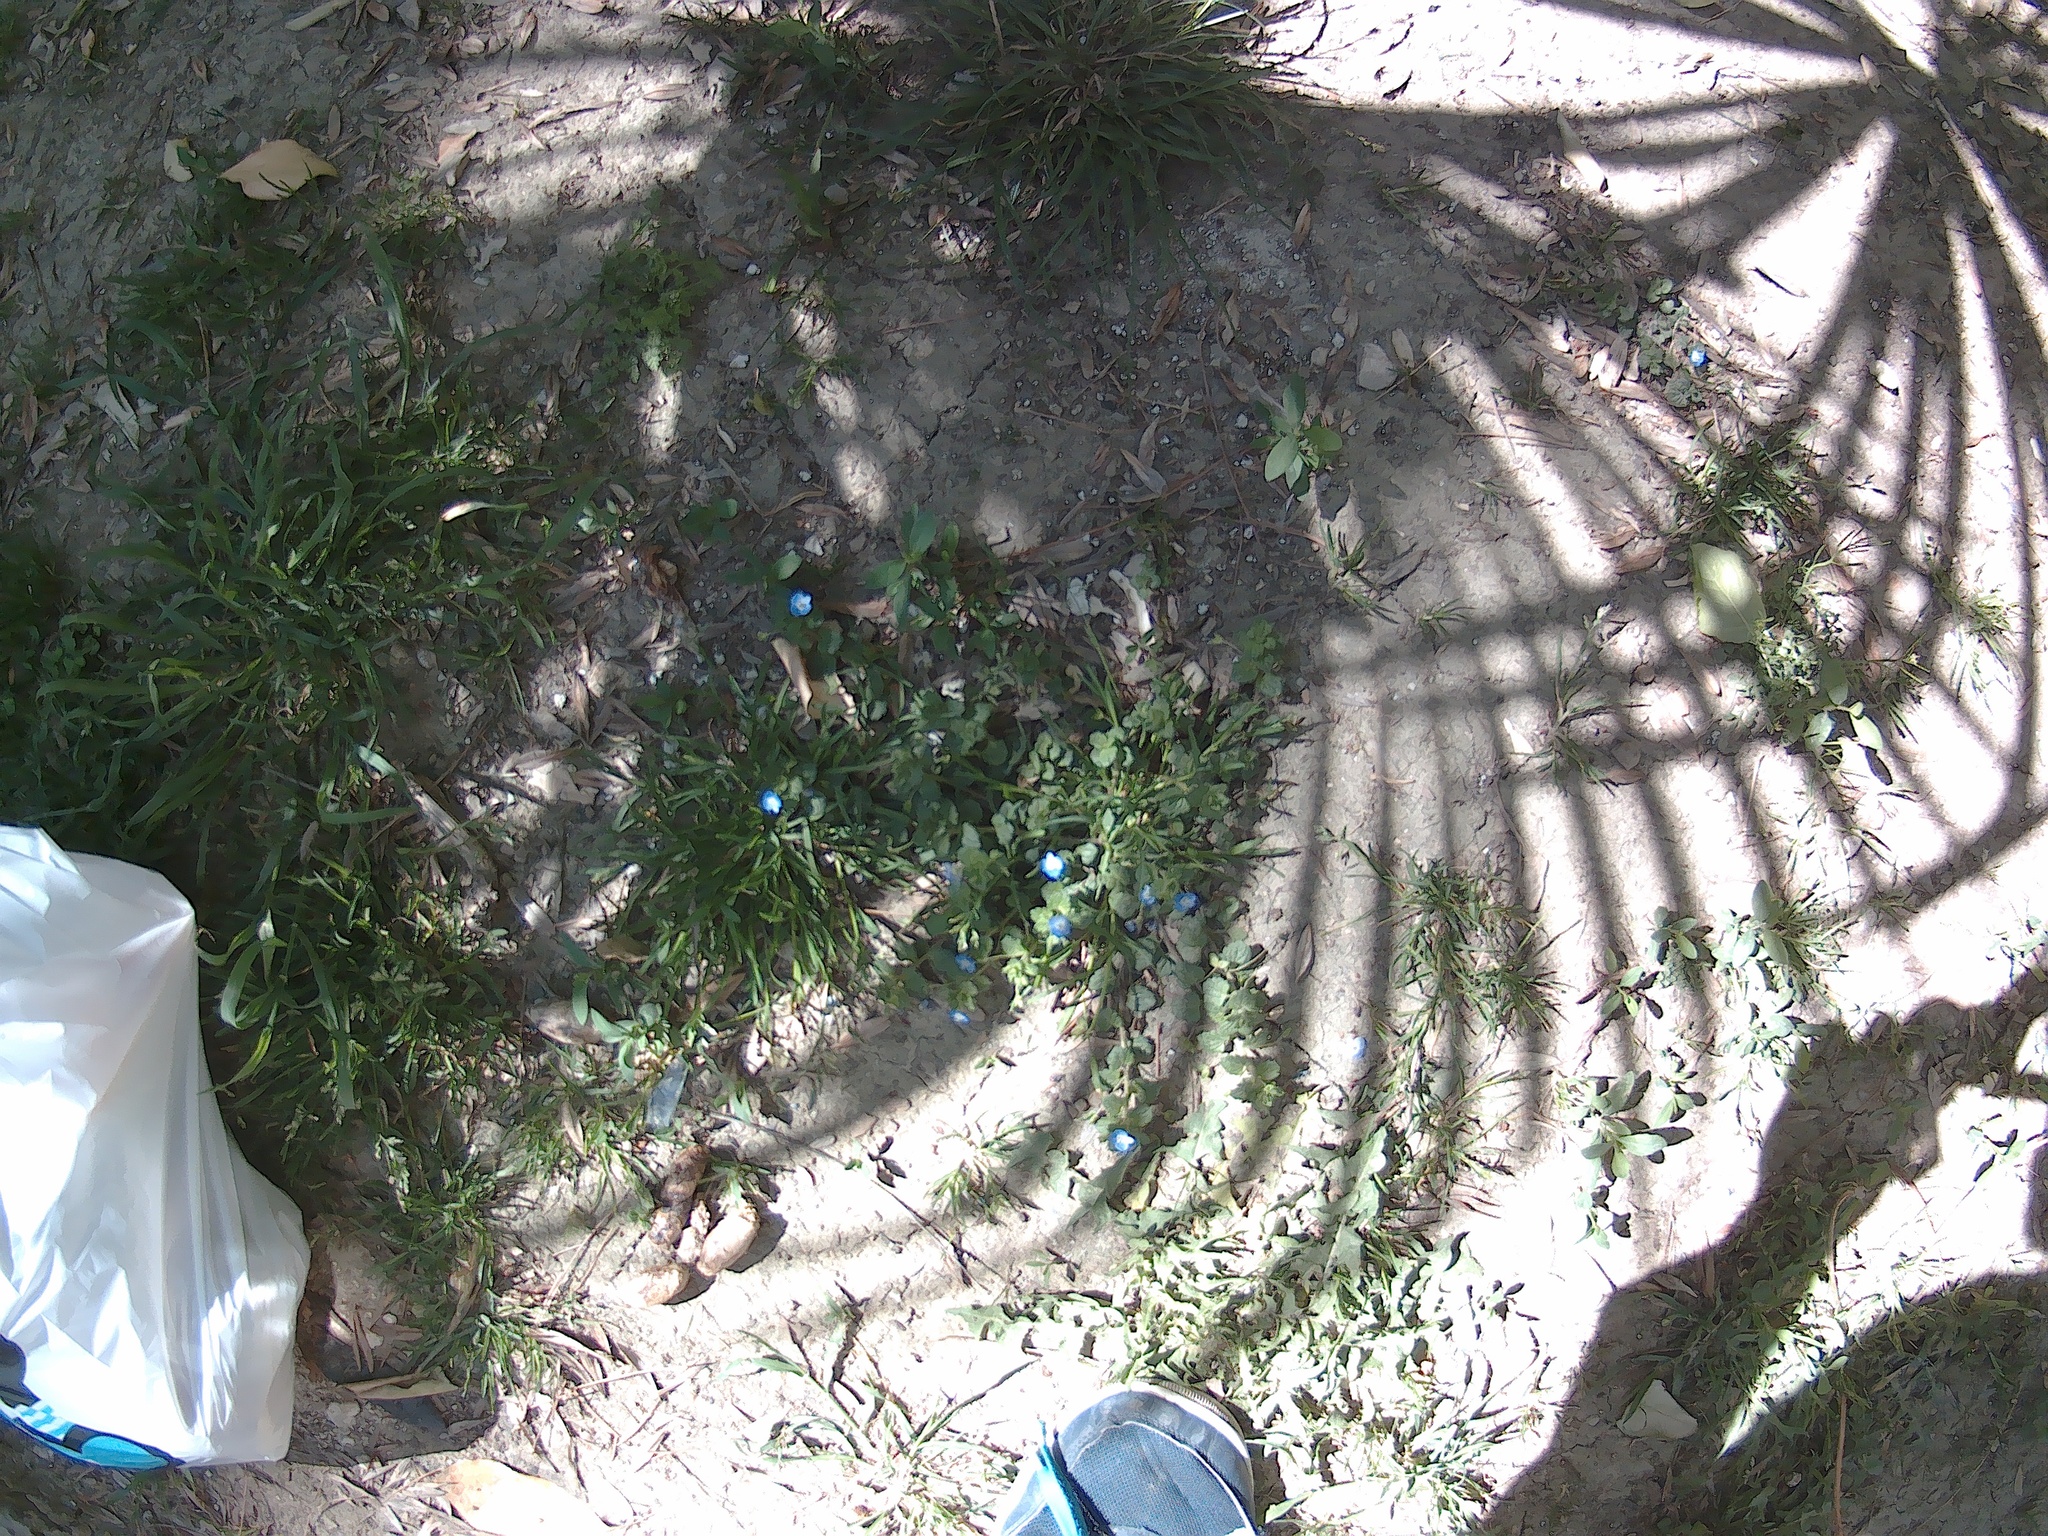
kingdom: Plantae
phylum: Tracheophyta
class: Magnoliopsida
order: Lamiales
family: Plantaginaceae
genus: Veronica
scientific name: Veronica persica
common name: Common field-speedwell
